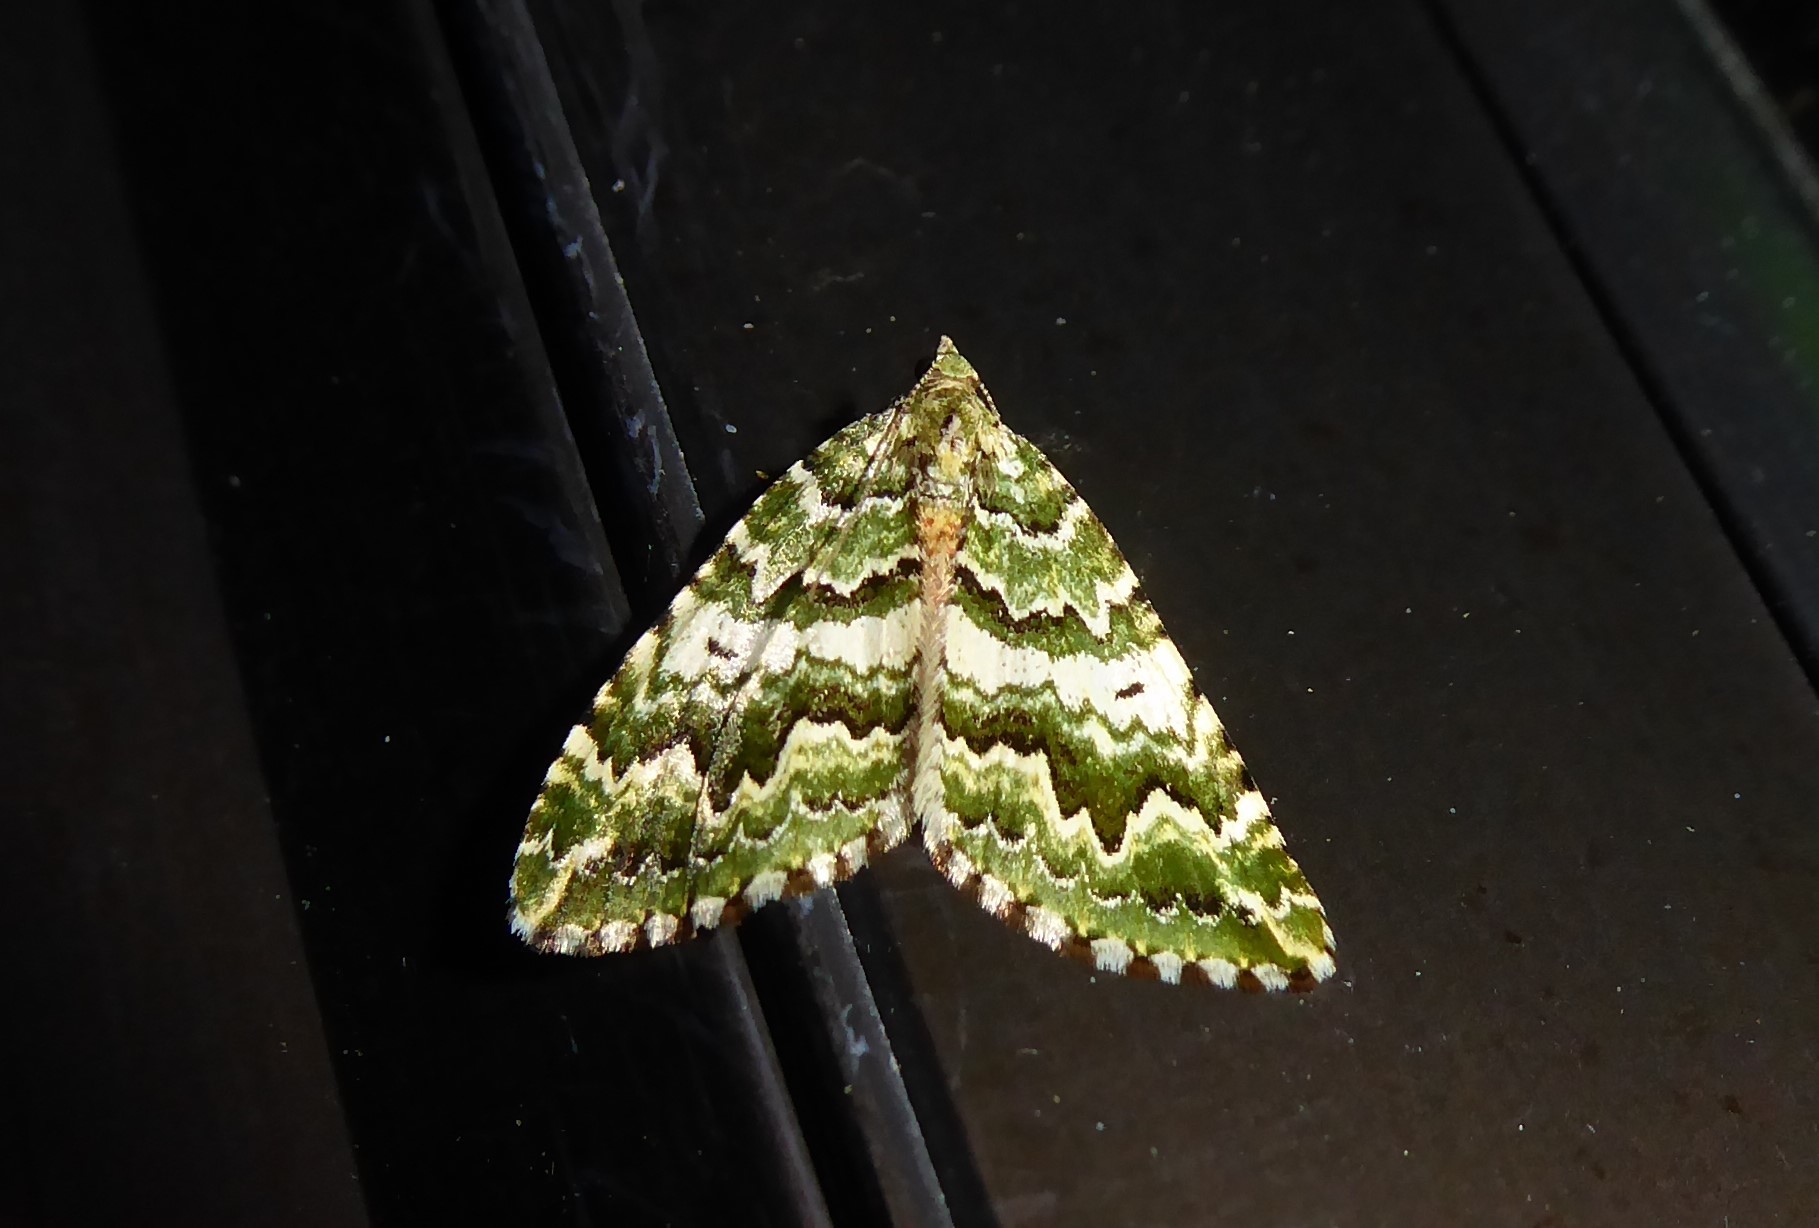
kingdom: Animalia
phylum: Arthropoda
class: Insecta
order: Lepidoptera
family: Geometridae
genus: Asaphodes
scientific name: Asaphodes beata
